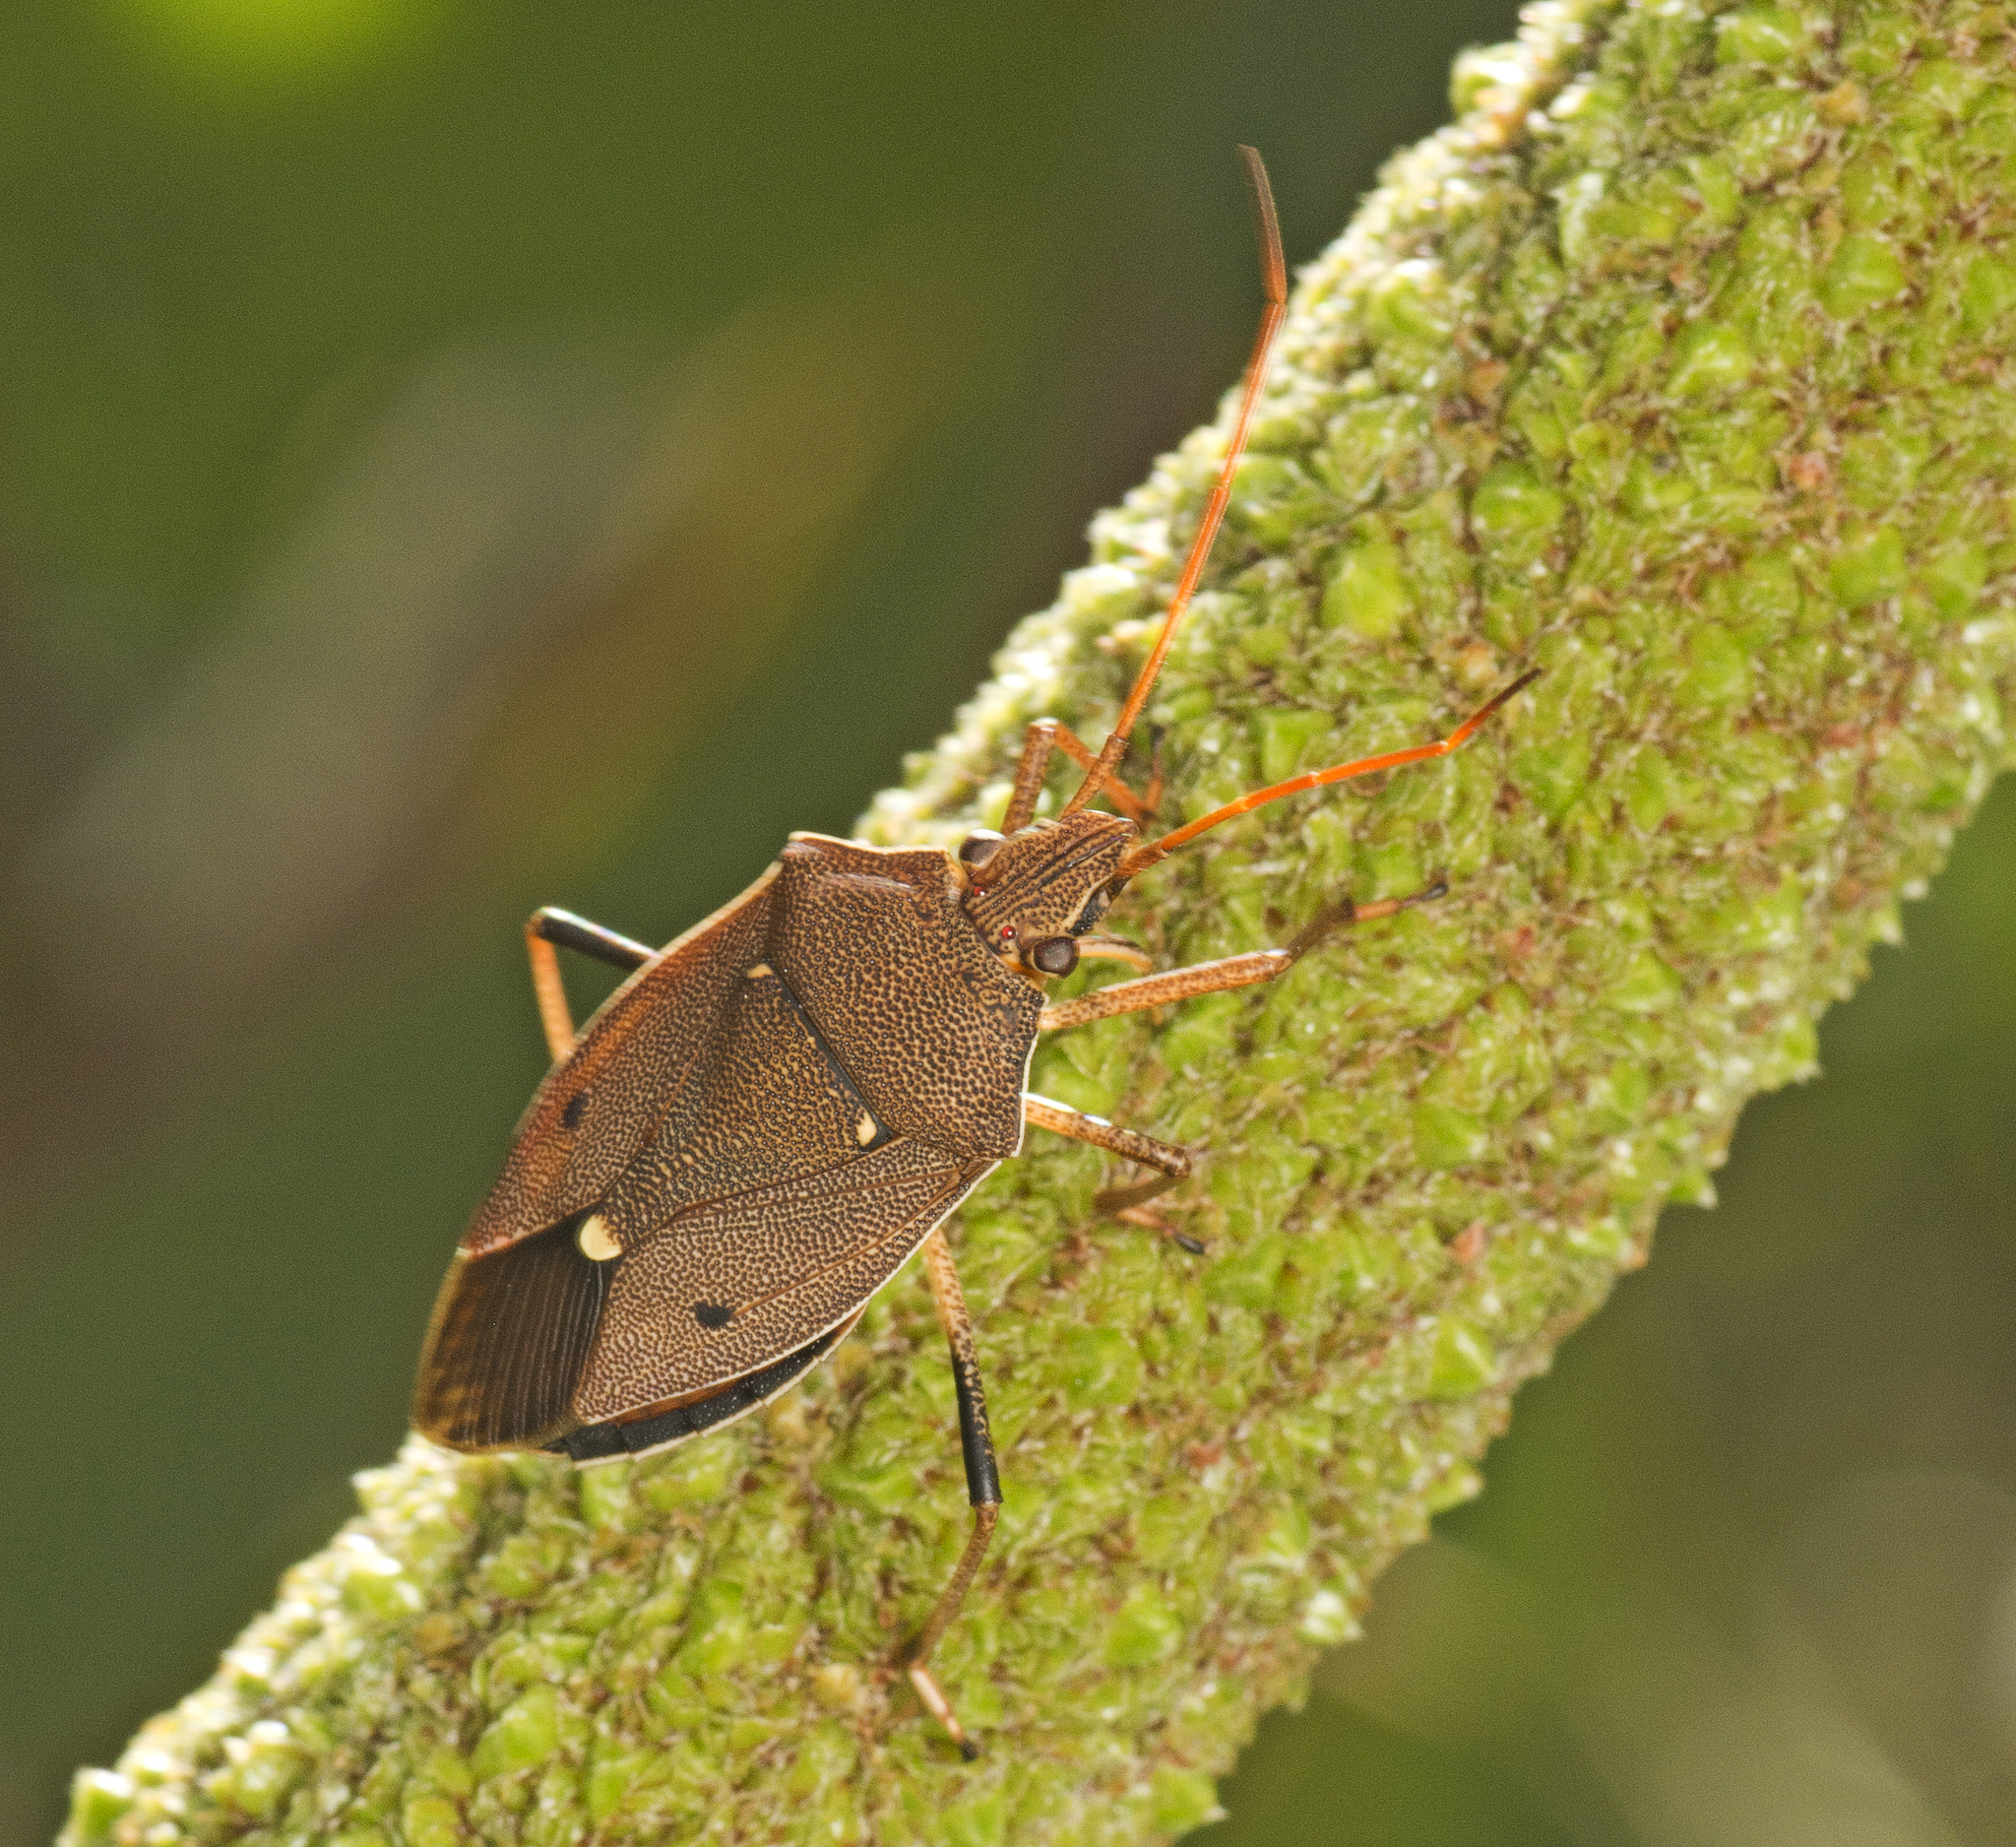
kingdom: Animalia
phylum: Arthropoda
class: Insecta
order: Hemiptera
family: Pentatomidae
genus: Poecilometis
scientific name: Poecilometis
